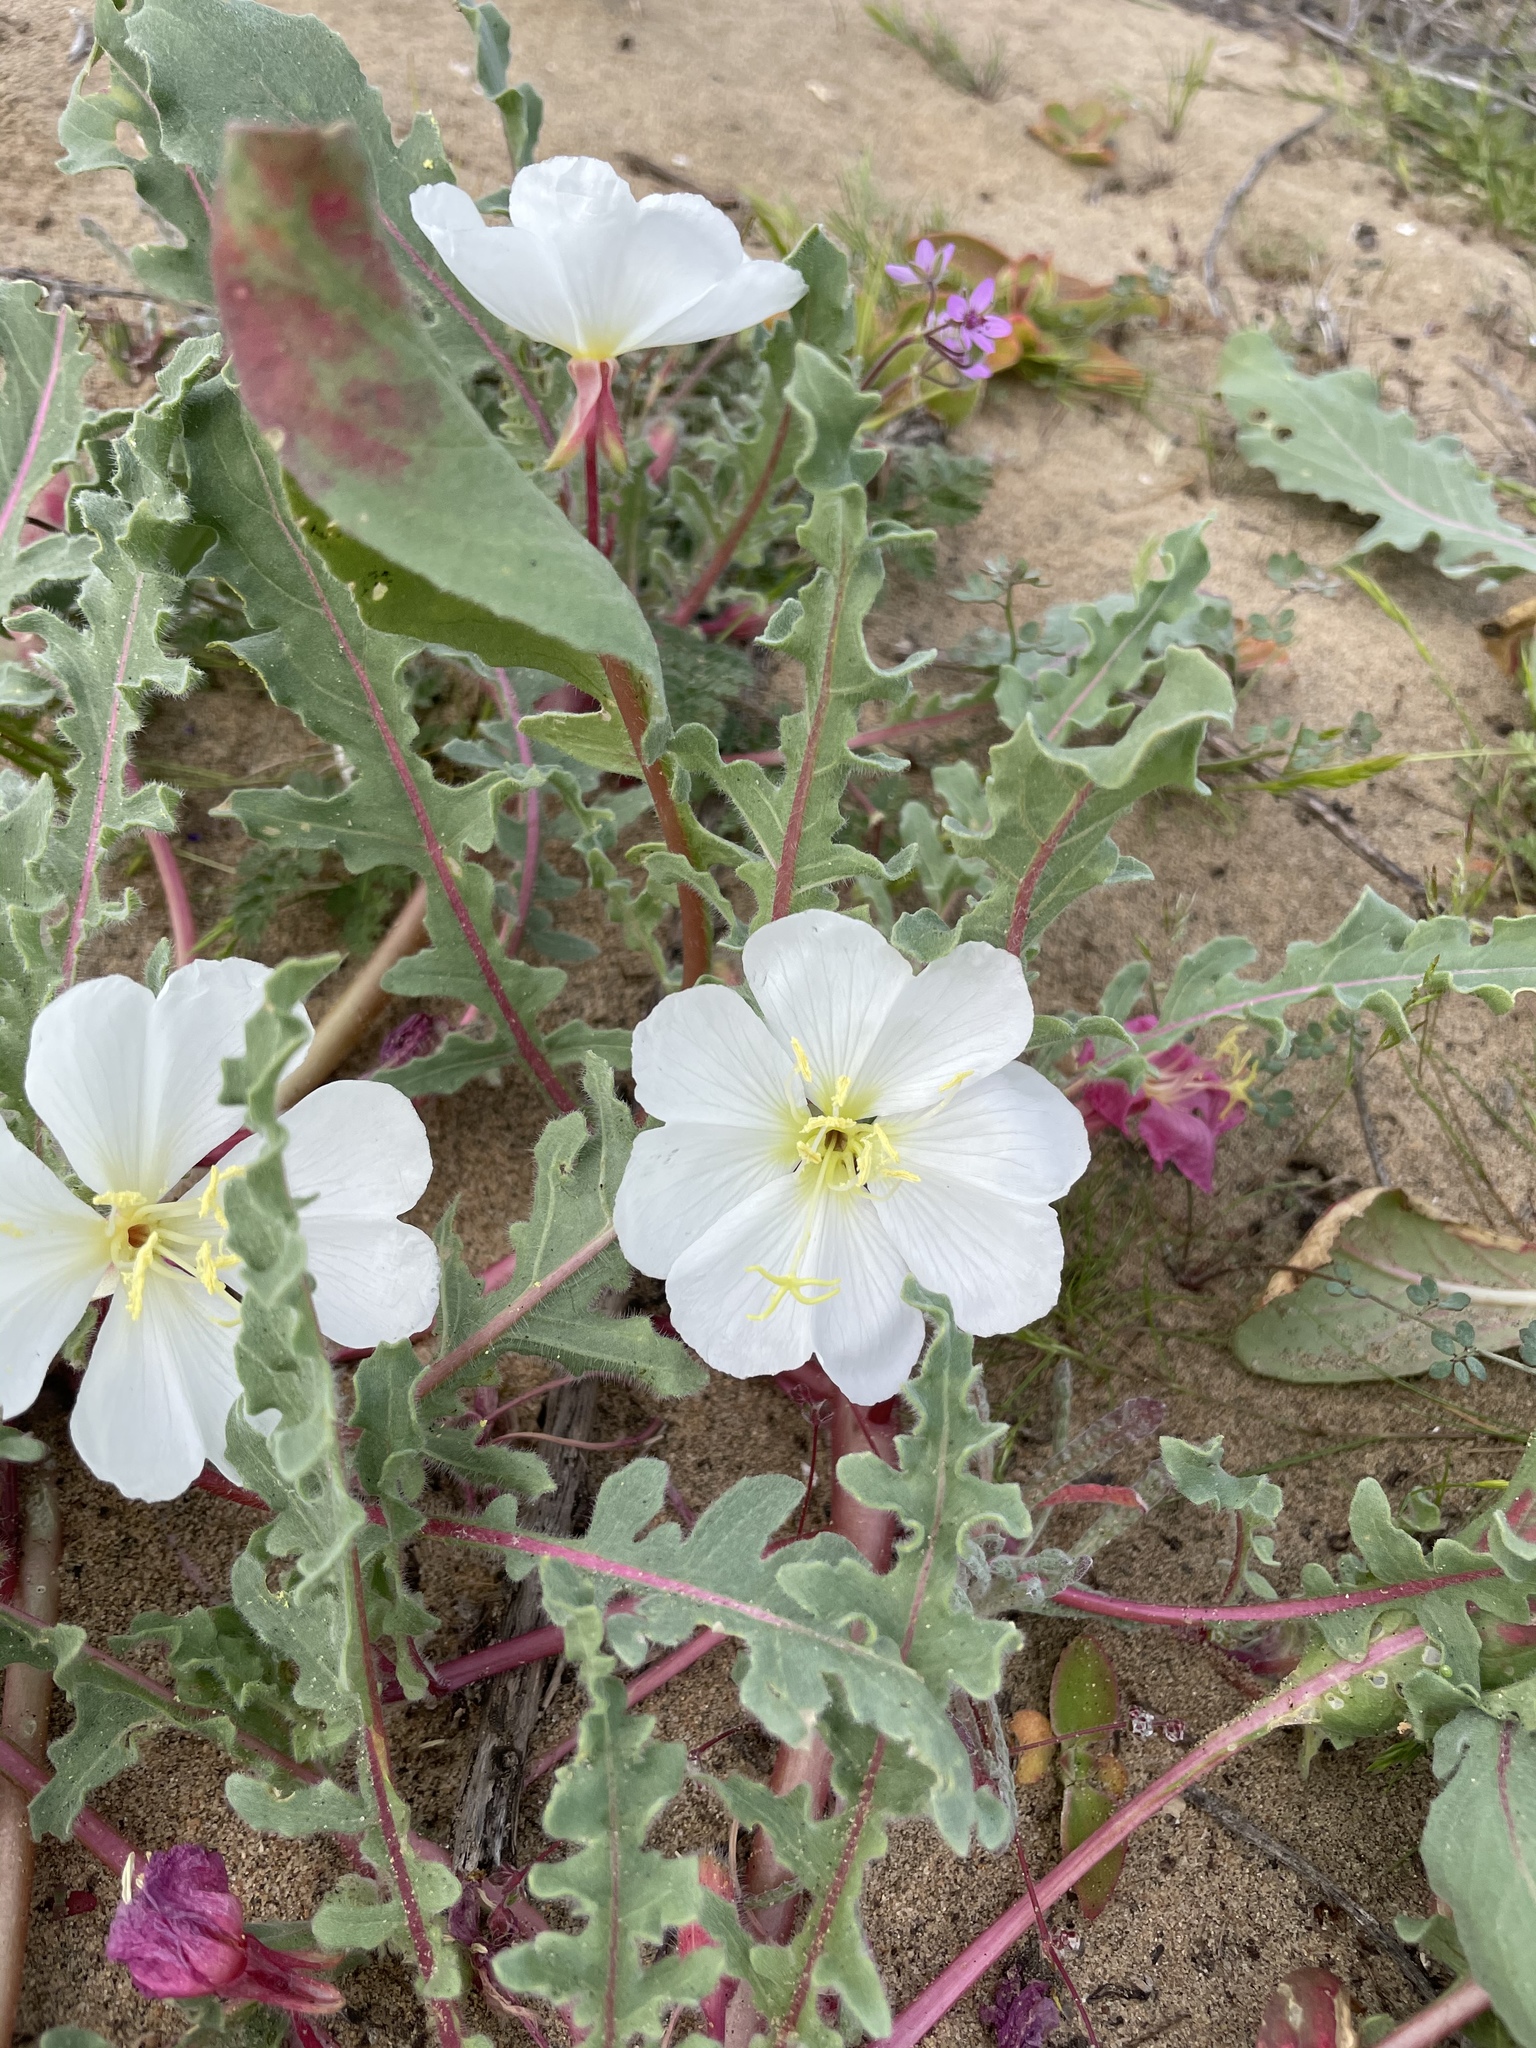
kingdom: Plantae
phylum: Tracheophyta
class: Magnoliopsida
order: Myrtales
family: Onagraceae
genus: Oenothera
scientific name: Oenothera wigginsii
